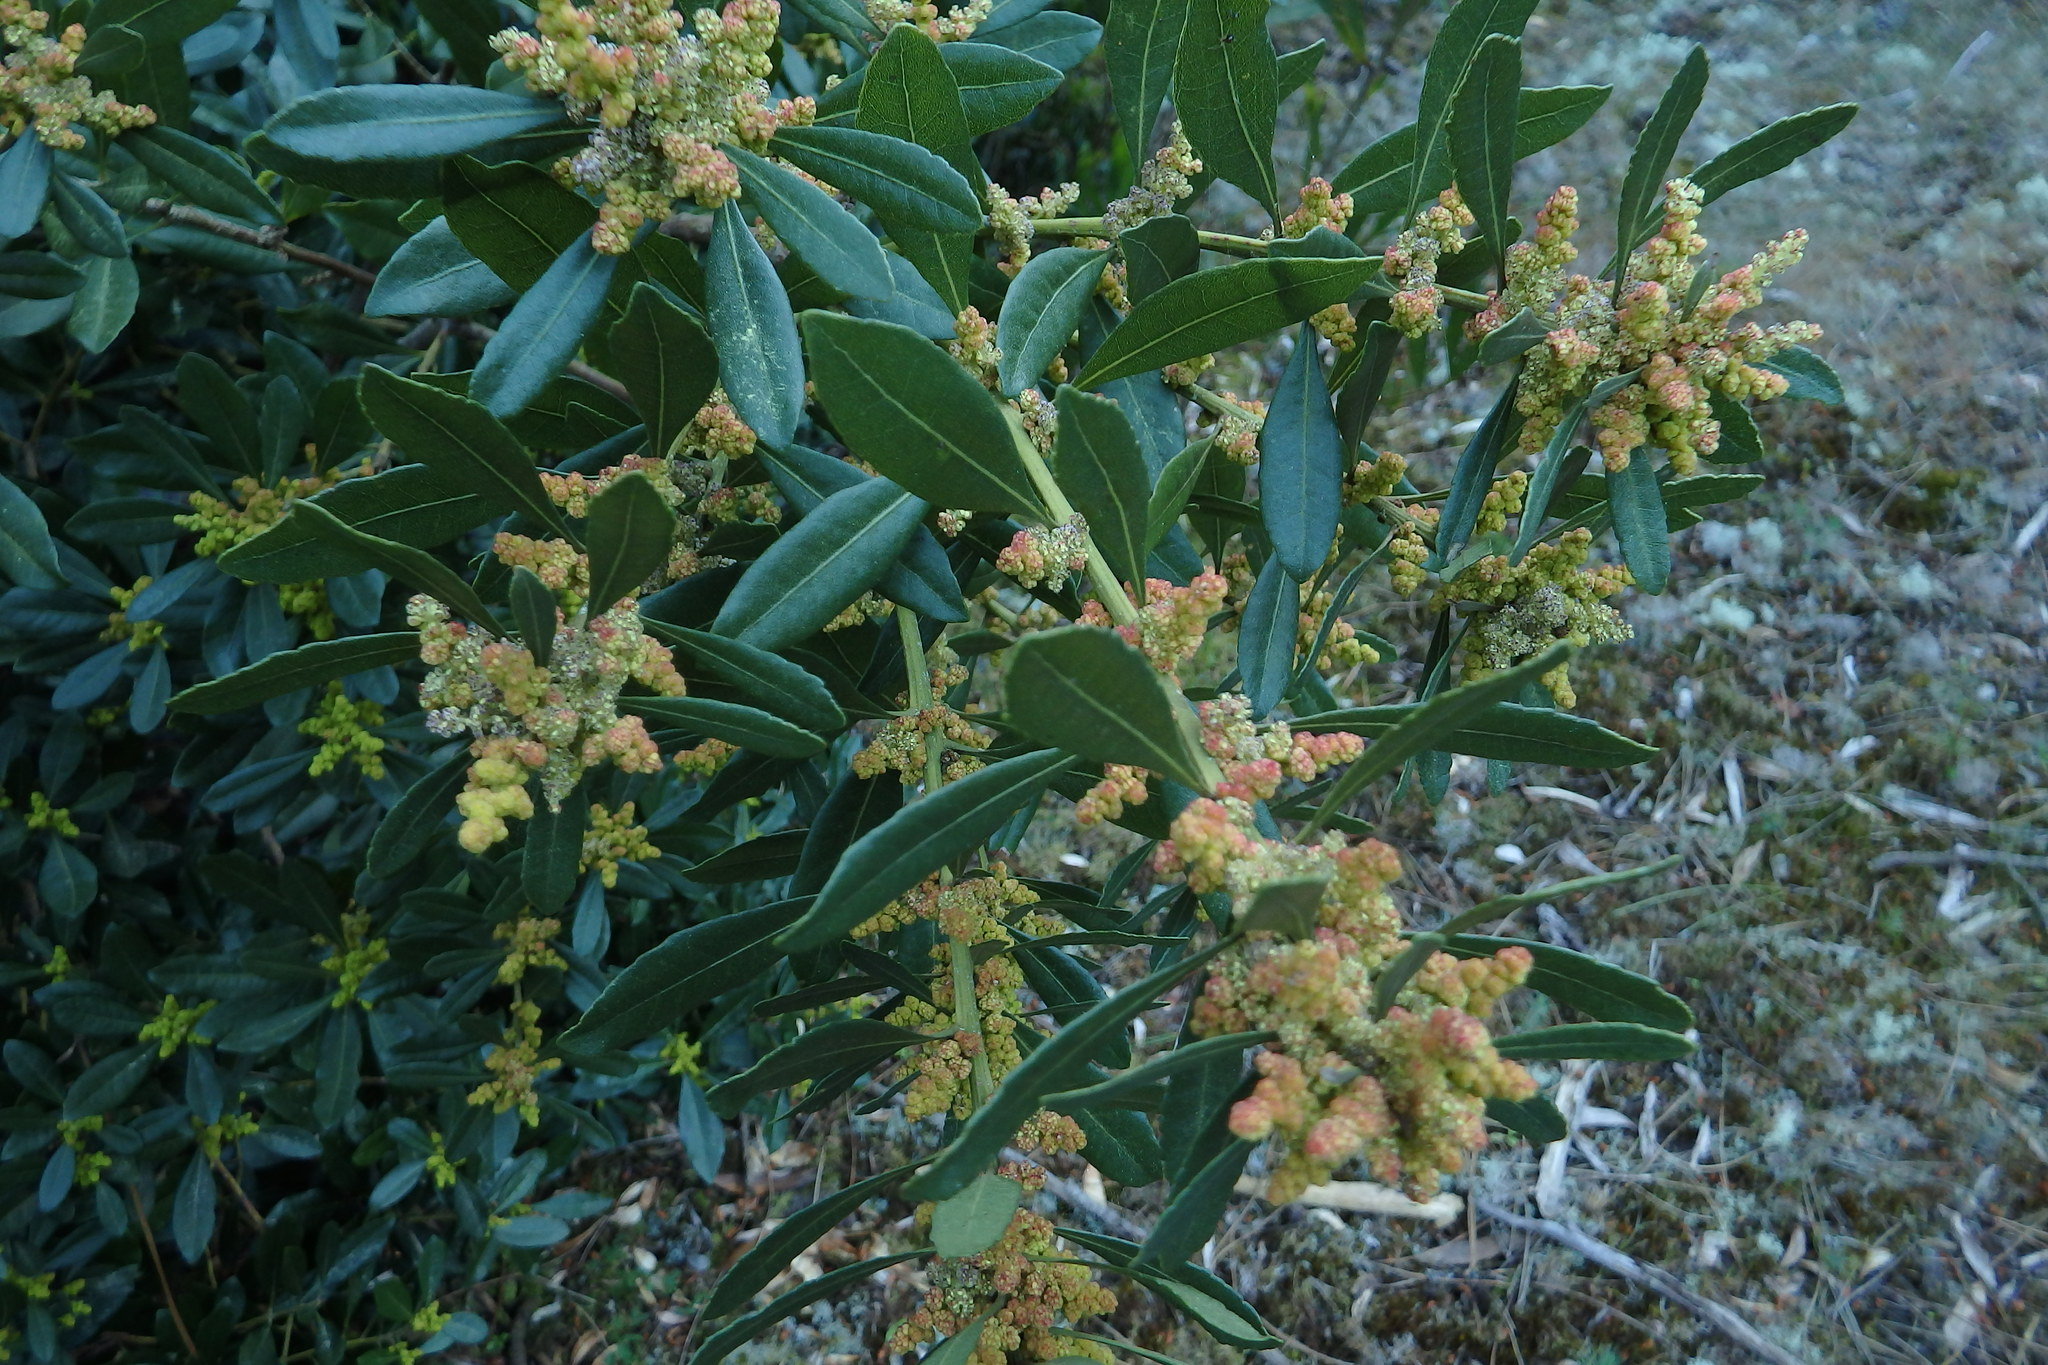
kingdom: Plantae
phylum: Tracheophyta
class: Magnoliopsida
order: Fagales
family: Myricaceae
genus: Morella
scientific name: Morella faya
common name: Firetree
